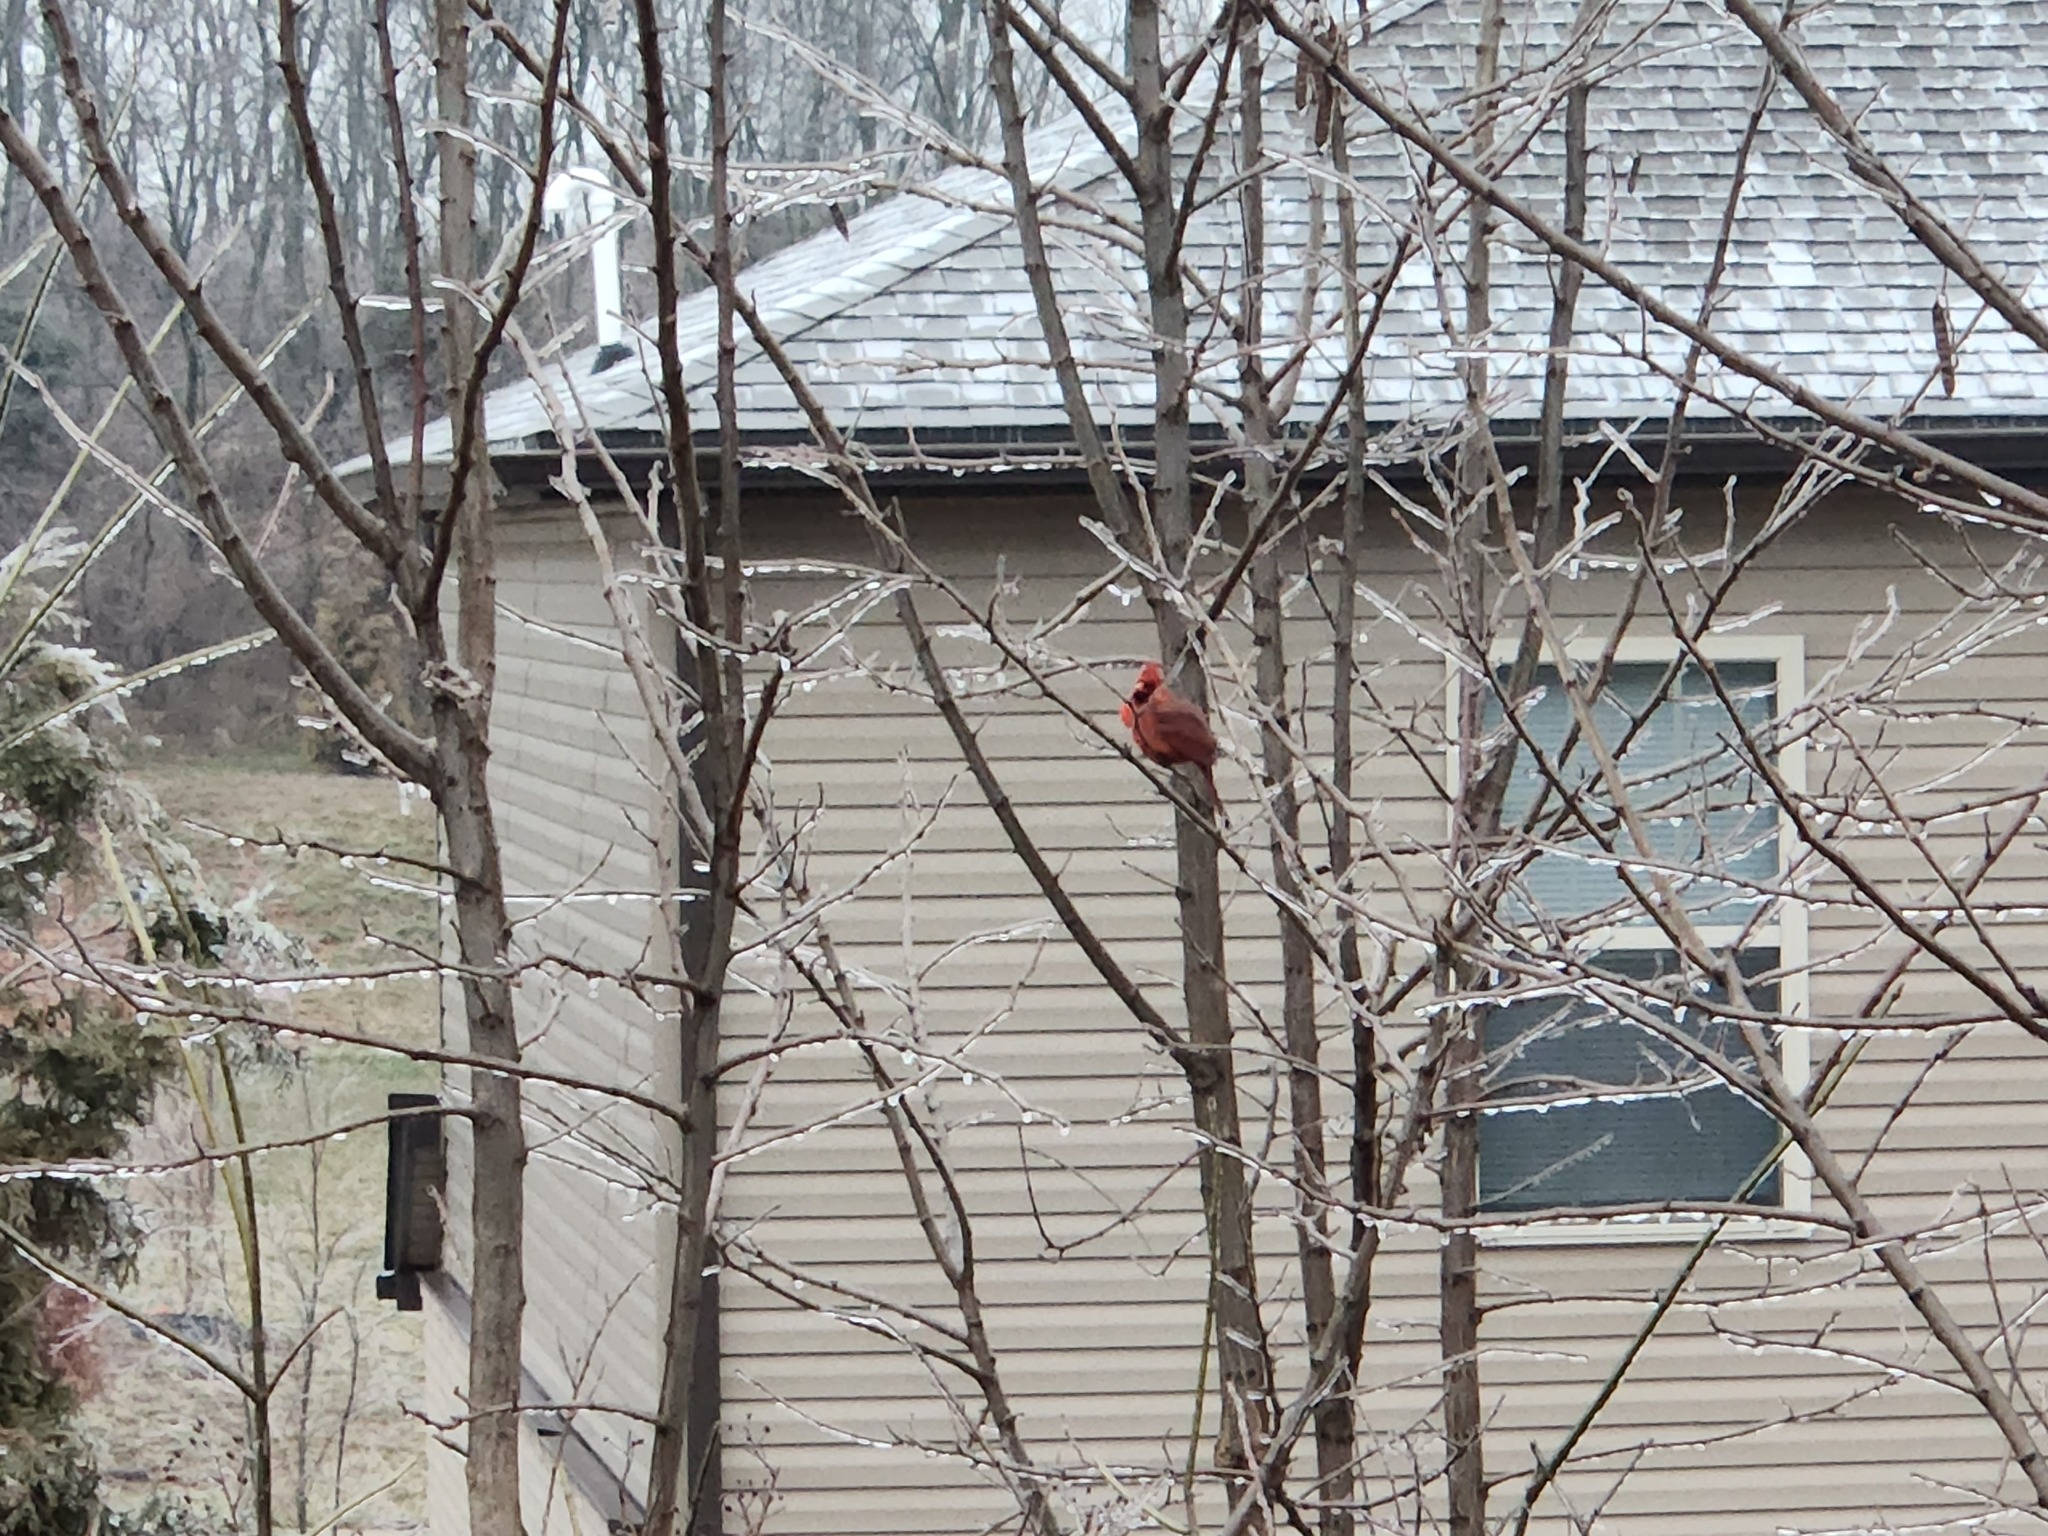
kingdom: Animalia
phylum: Chordata
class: Aves
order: Passeriformes
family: Cardinalidae
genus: Cardinalis
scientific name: Cardinalis cardinalis
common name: Northern cardinal
